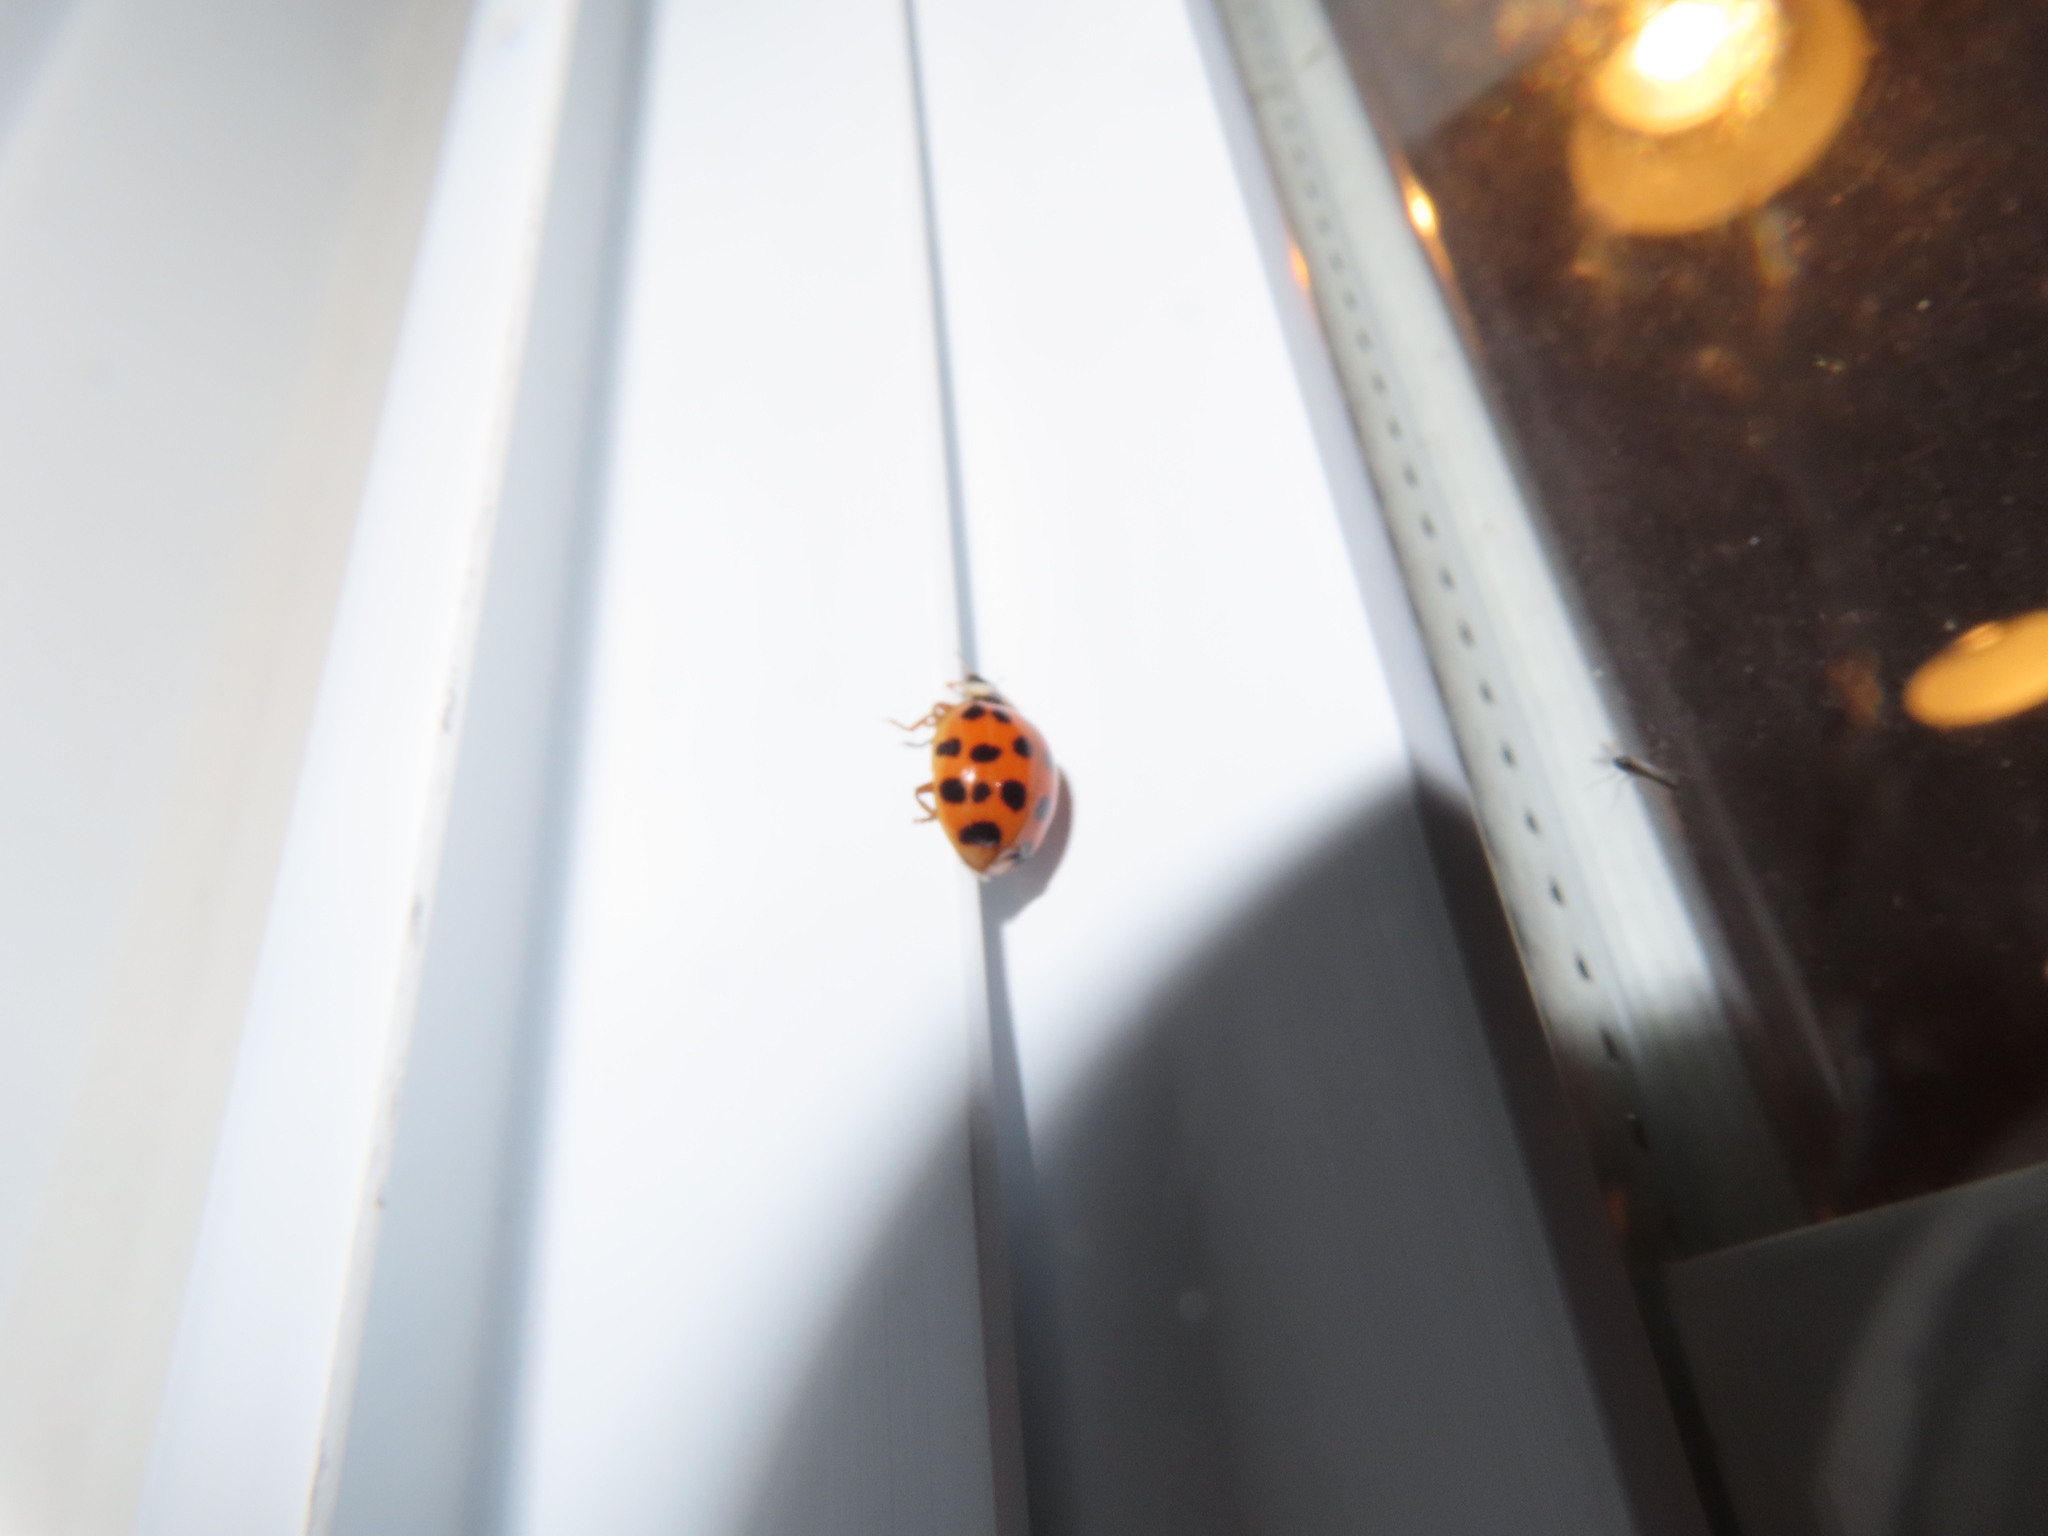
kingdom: Animalia
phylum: Arthropoda
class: Insecta
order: Coleoptera
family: Coccinellidae
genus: Harmonia
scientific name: Harmonia axyridis
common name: Harlequin ladybird
